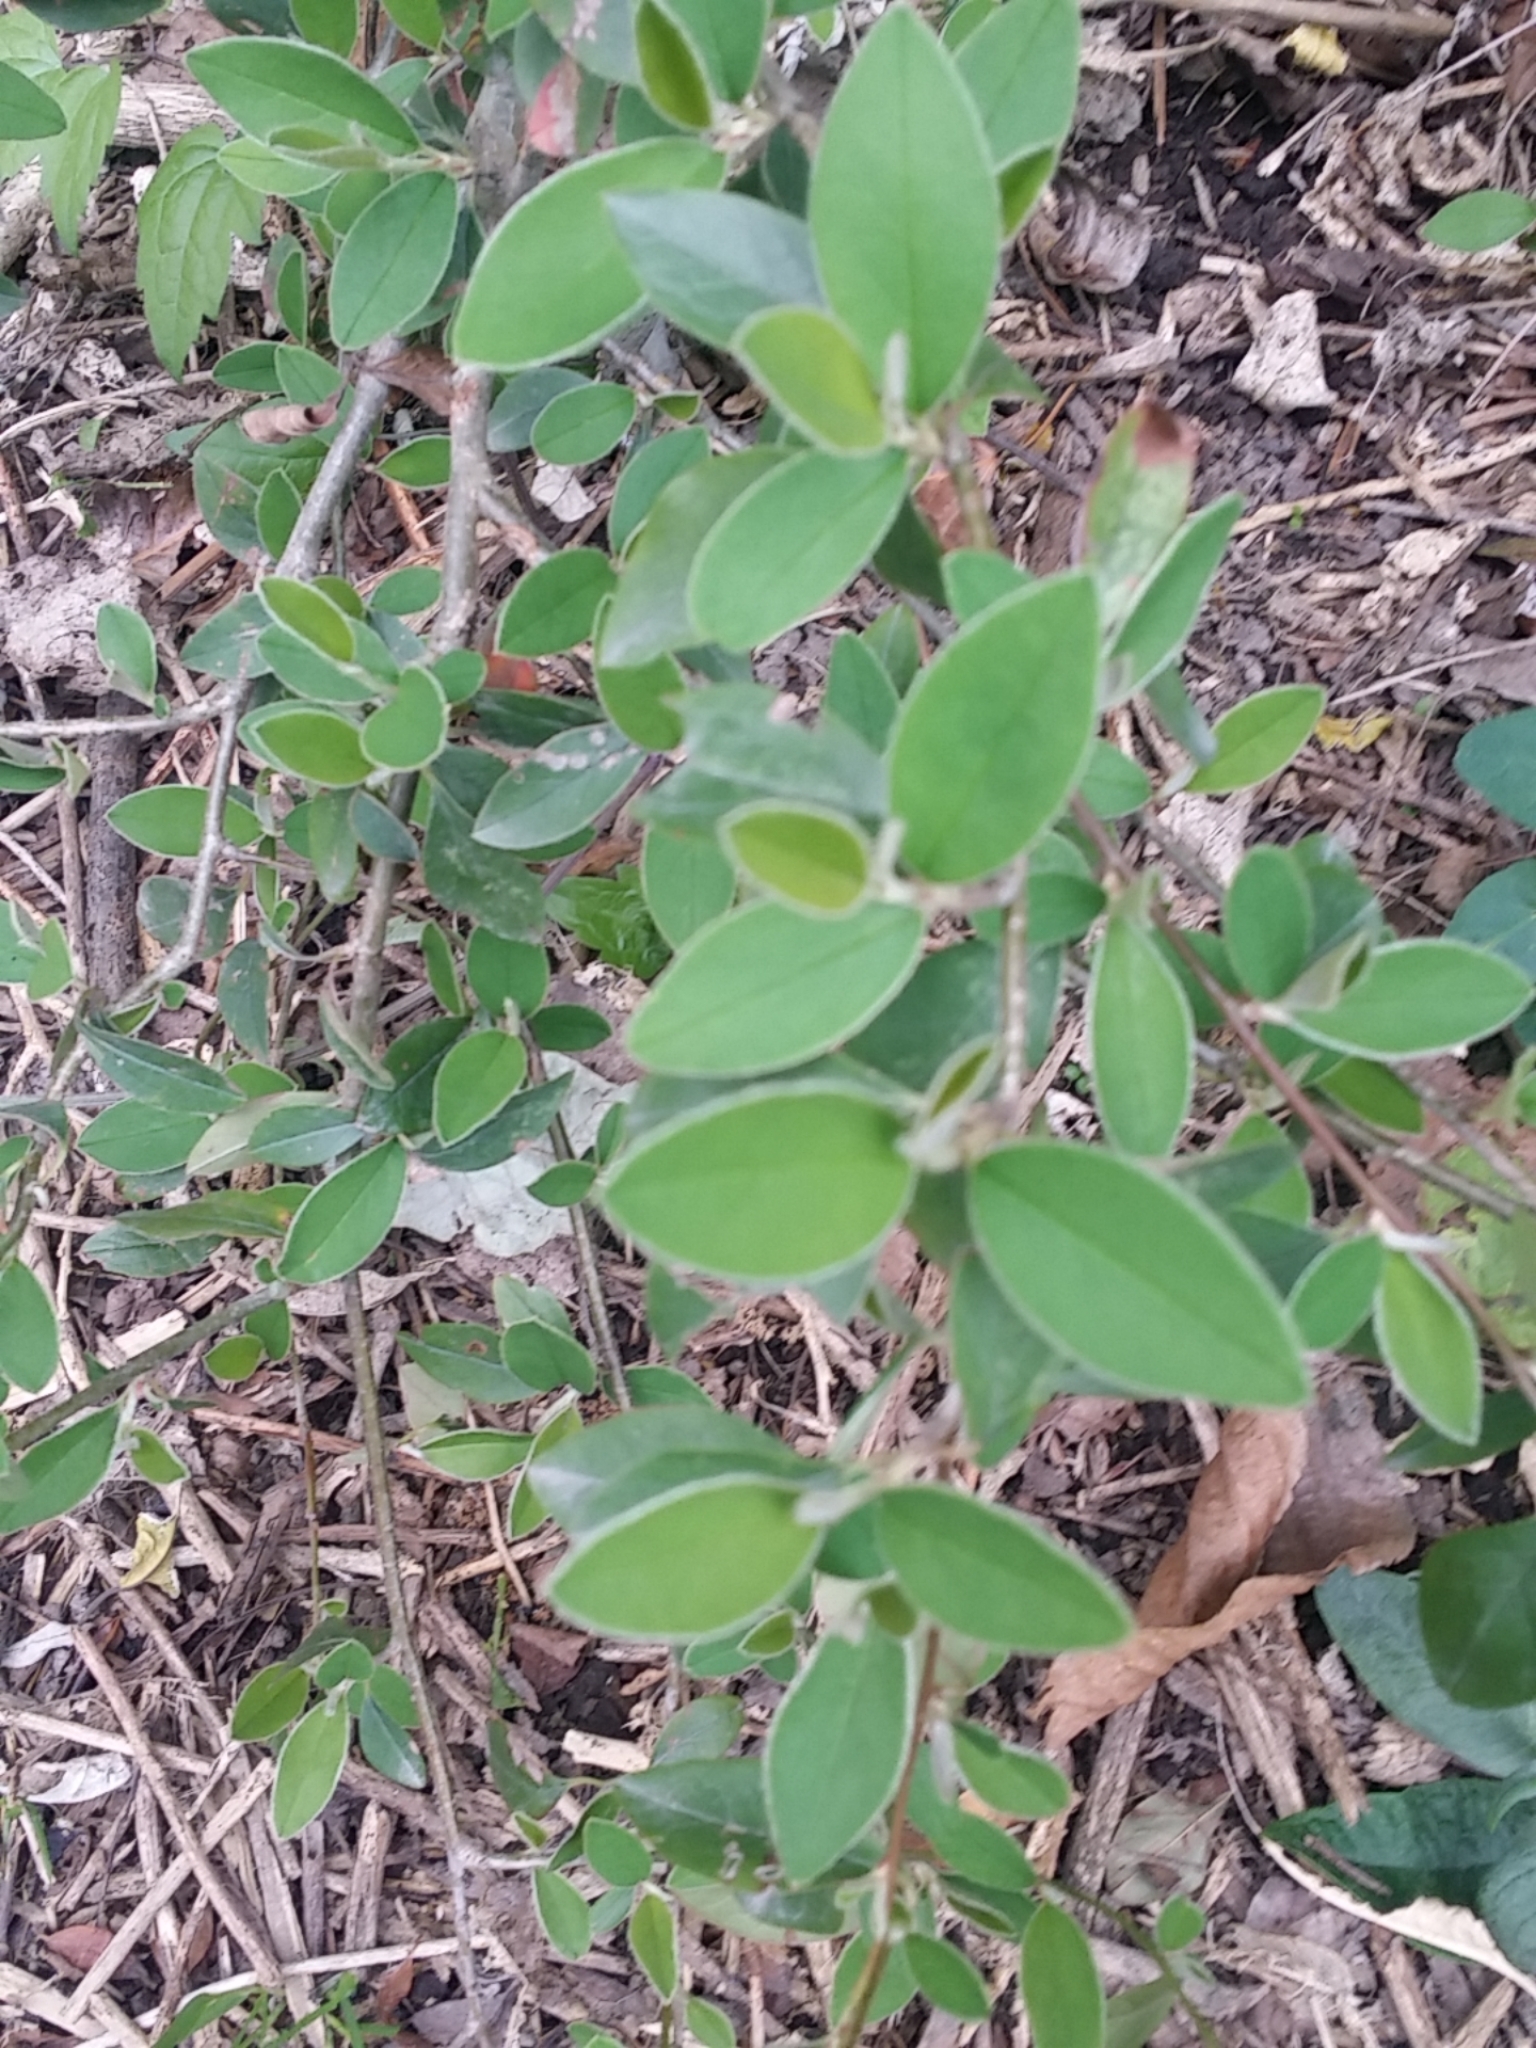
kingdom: Plantae
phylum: Tracheophyta
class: Magnoliopsida
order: Rosales
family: Rosaceae
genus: Cotoneaster
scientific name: Cotoneaster pannosus
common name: Silverleaf cotoneaster
